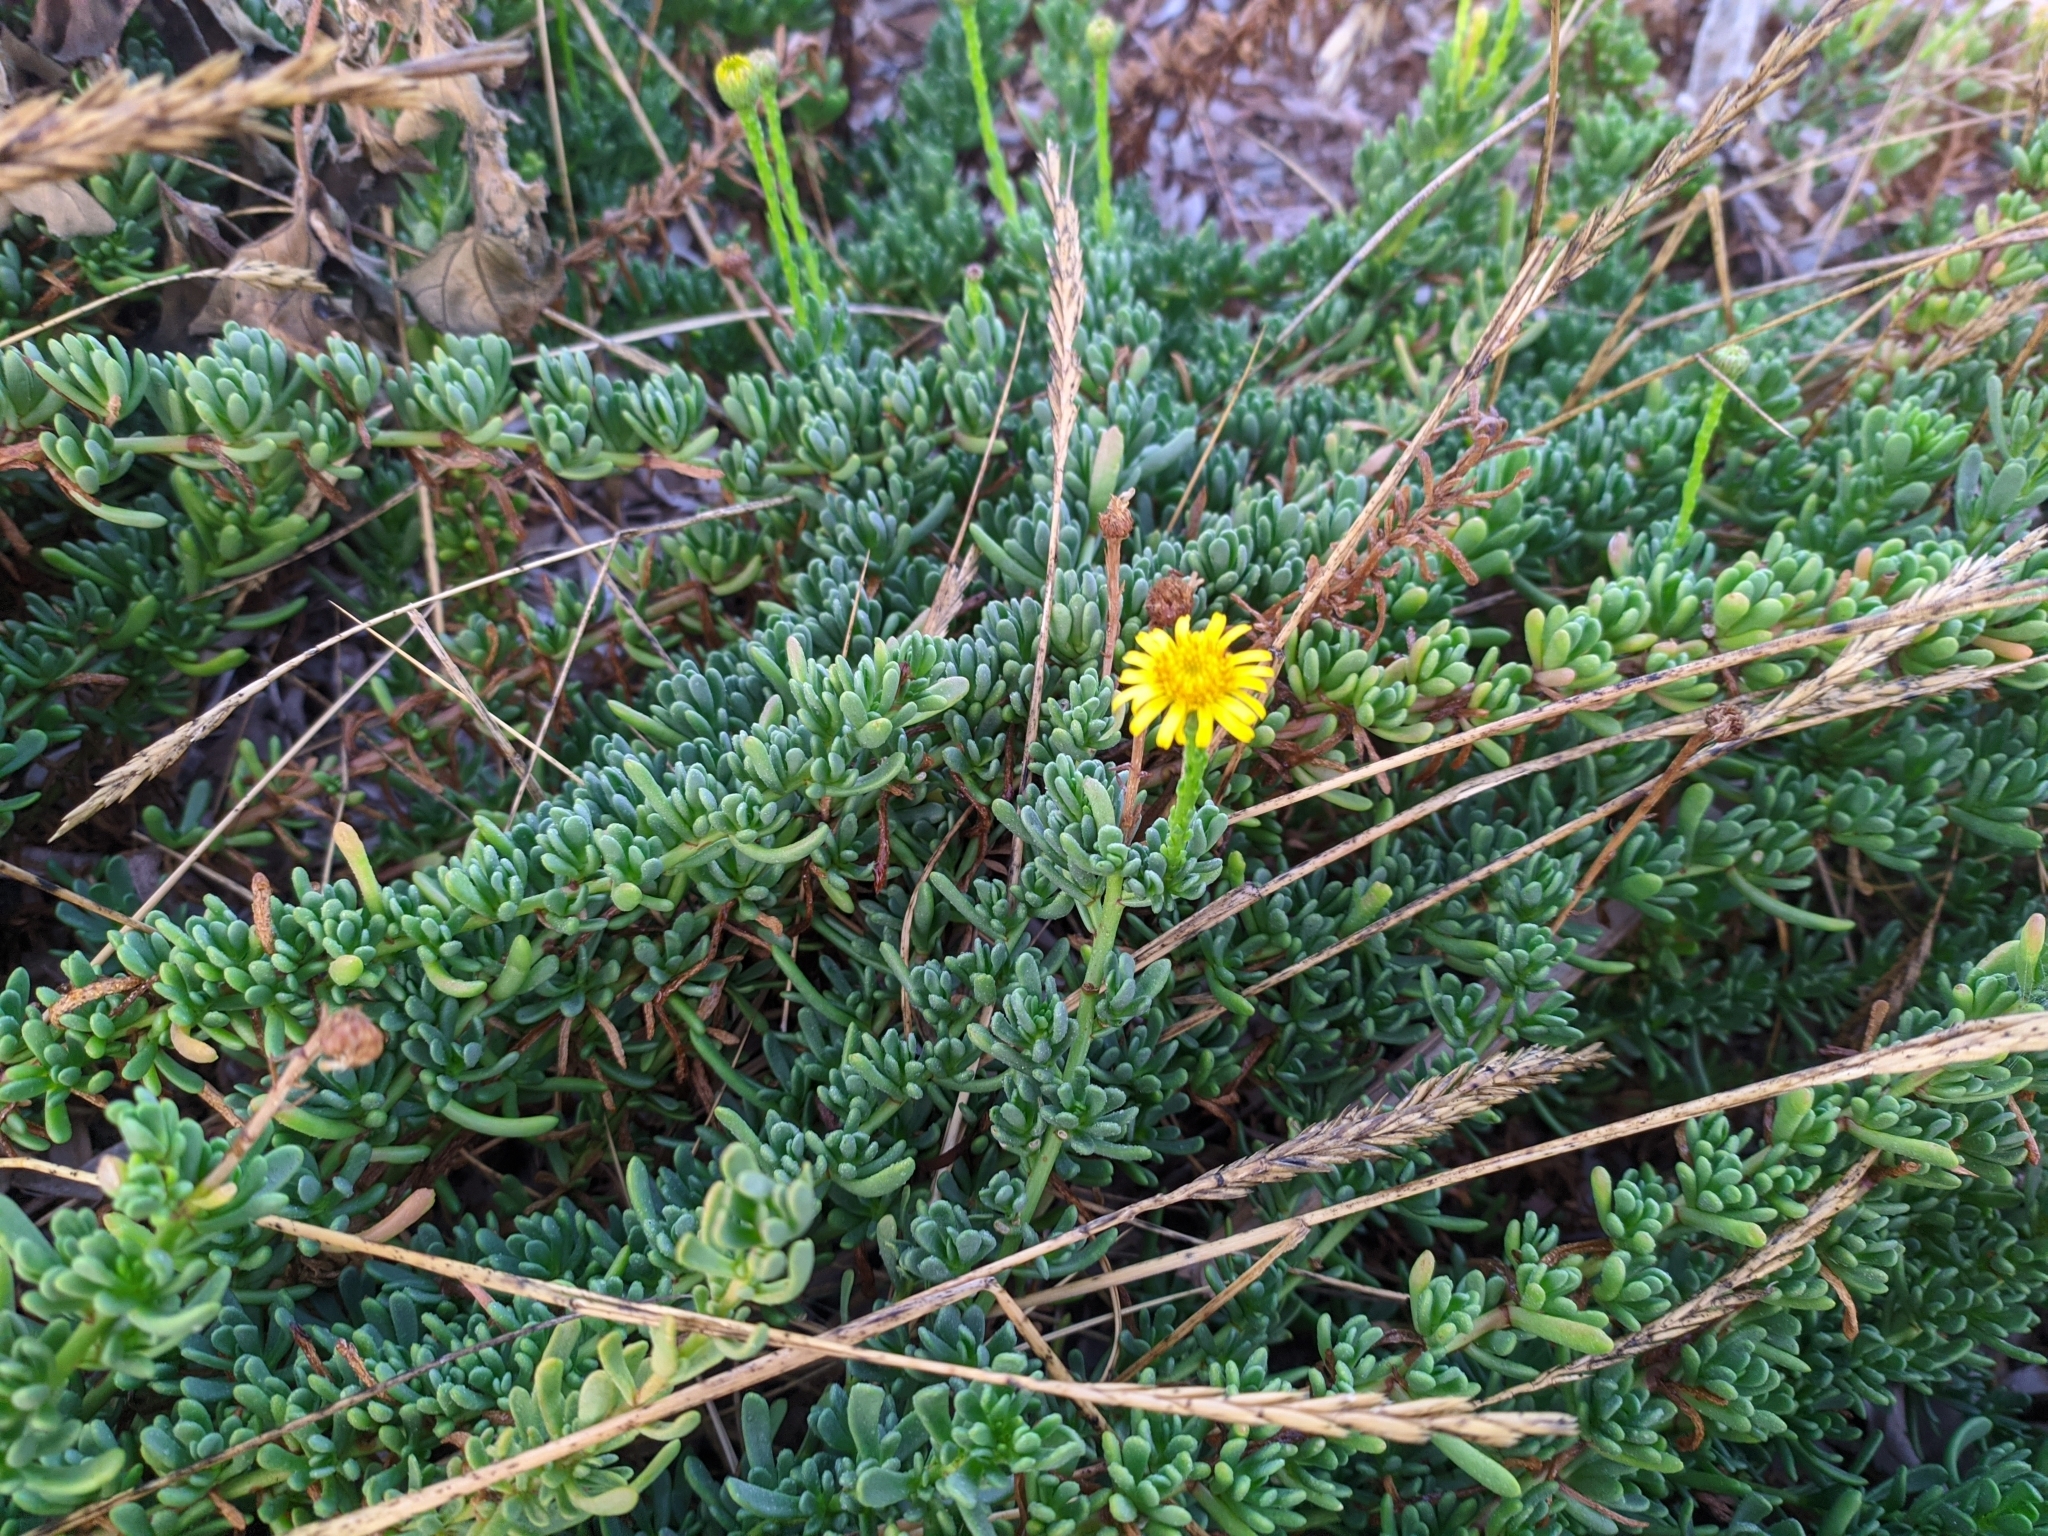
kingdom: Plantae
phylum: Tracheophyta
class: Magnoliopsida
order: Asterales
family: Asteraceae
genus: Limbarda
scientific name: Limbarda crithmoides
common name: Golden samphire
